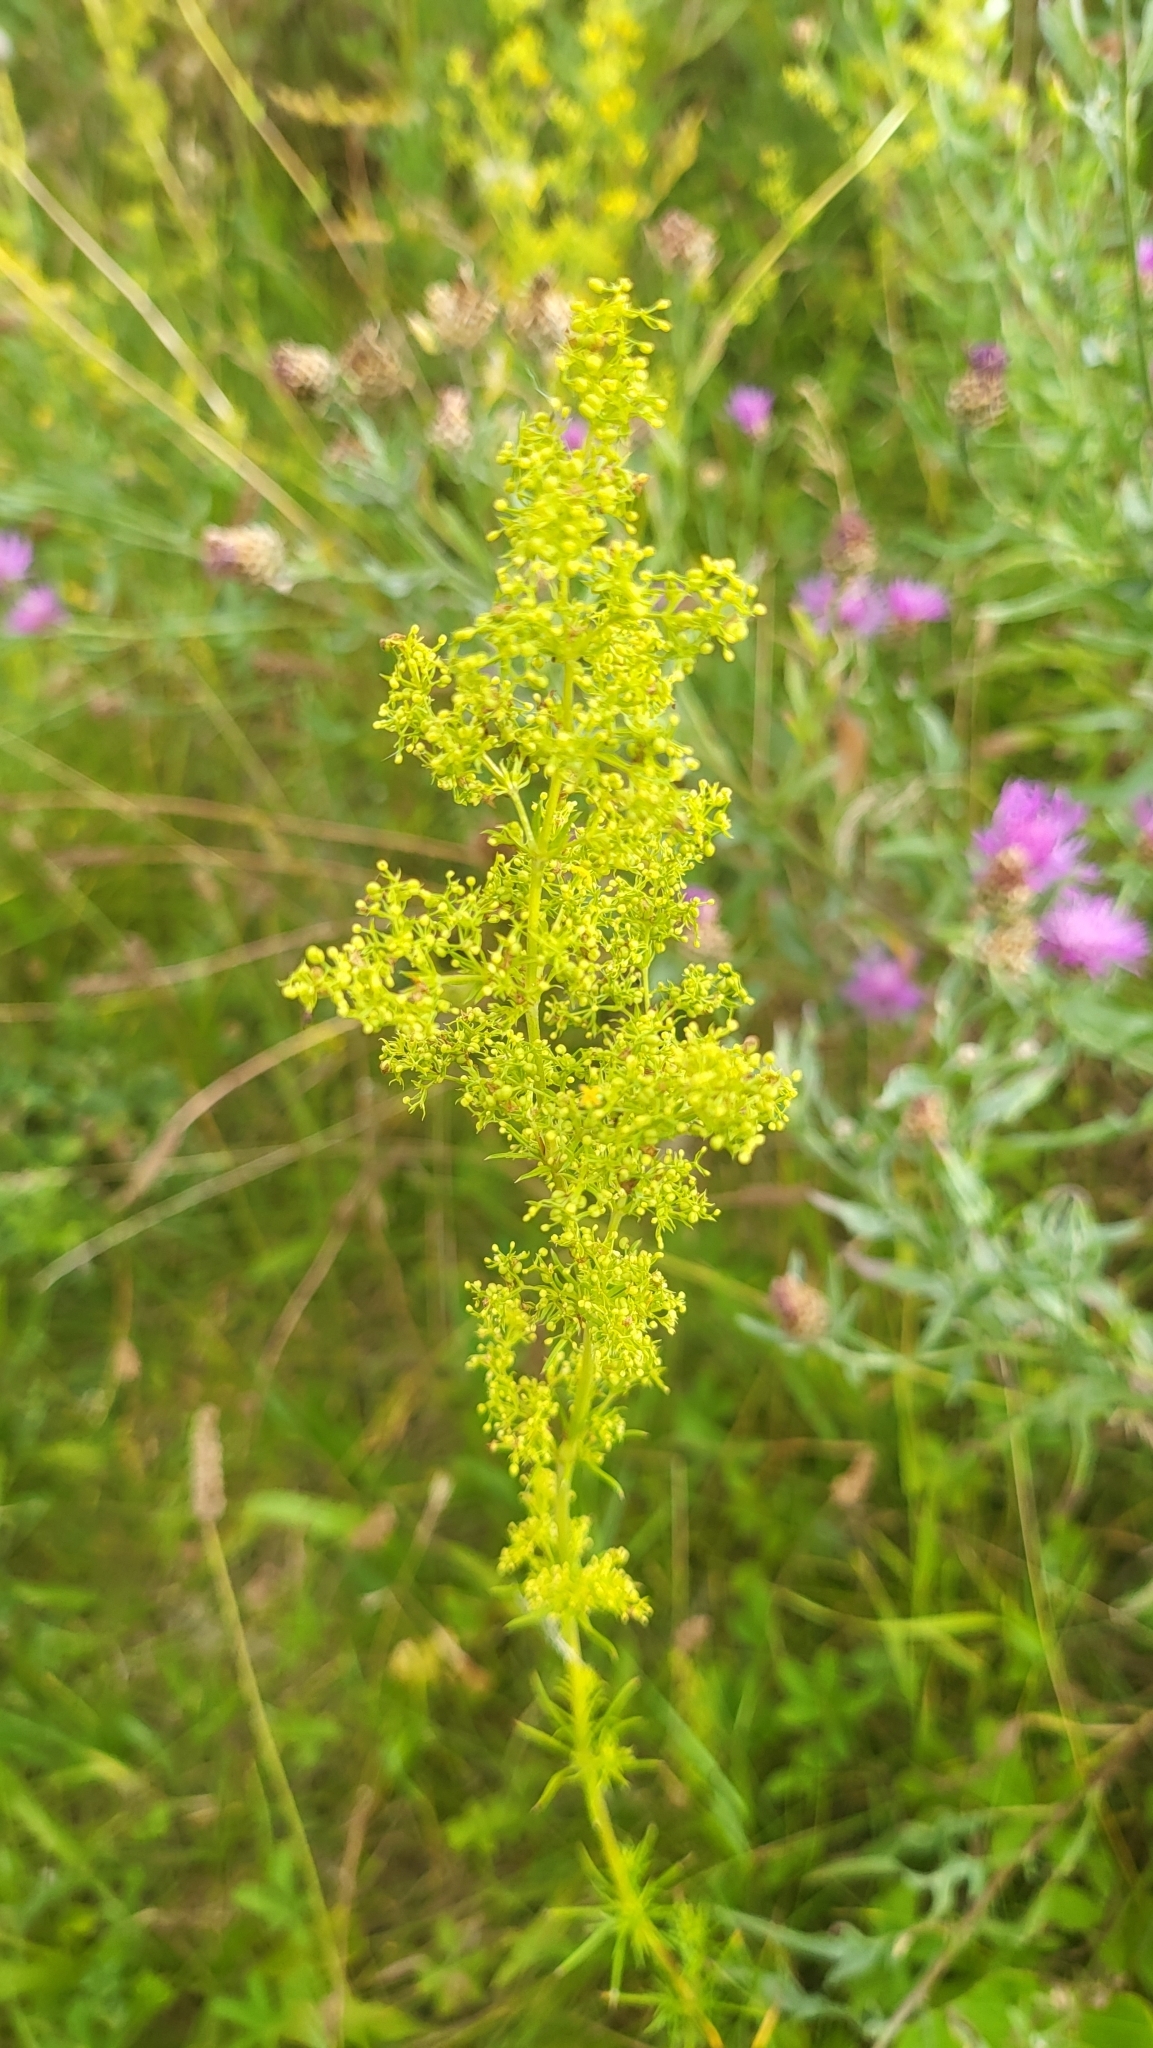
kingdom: Plantae
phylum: Tracheophyta
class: Magnoliopsida
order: Gentianales
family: Rubiaceae
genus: Galium
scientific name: Galium verum
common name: Lady's bedstraw
